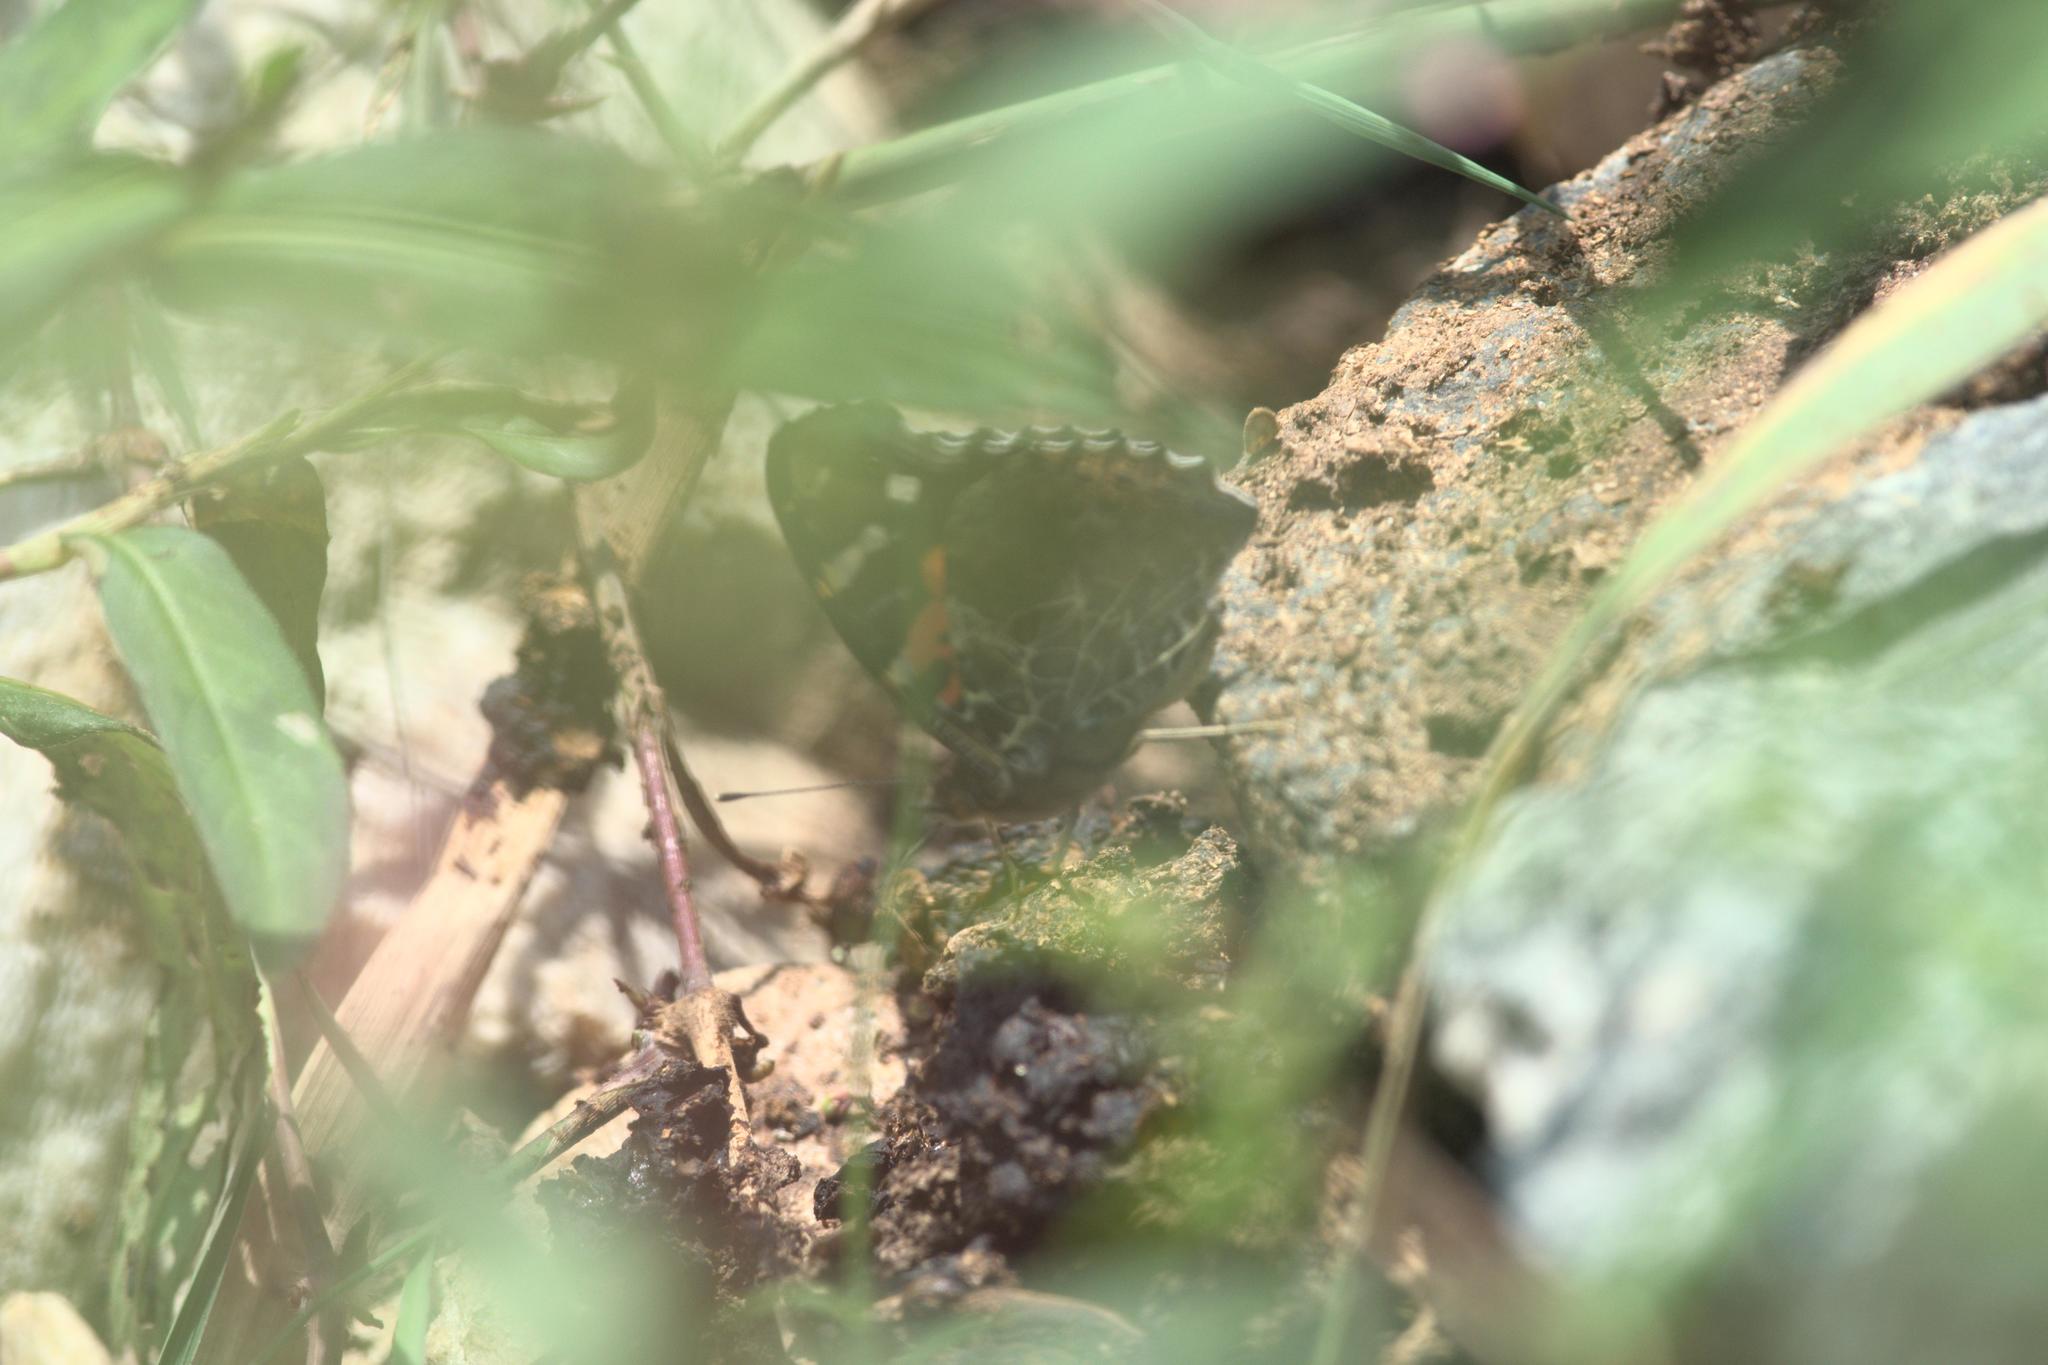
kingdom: Animalia
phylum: Arthropoda
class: Insecta
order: Lepidoptera
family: Nymphalidae
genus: Vanessa
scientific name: Vanessa indica
